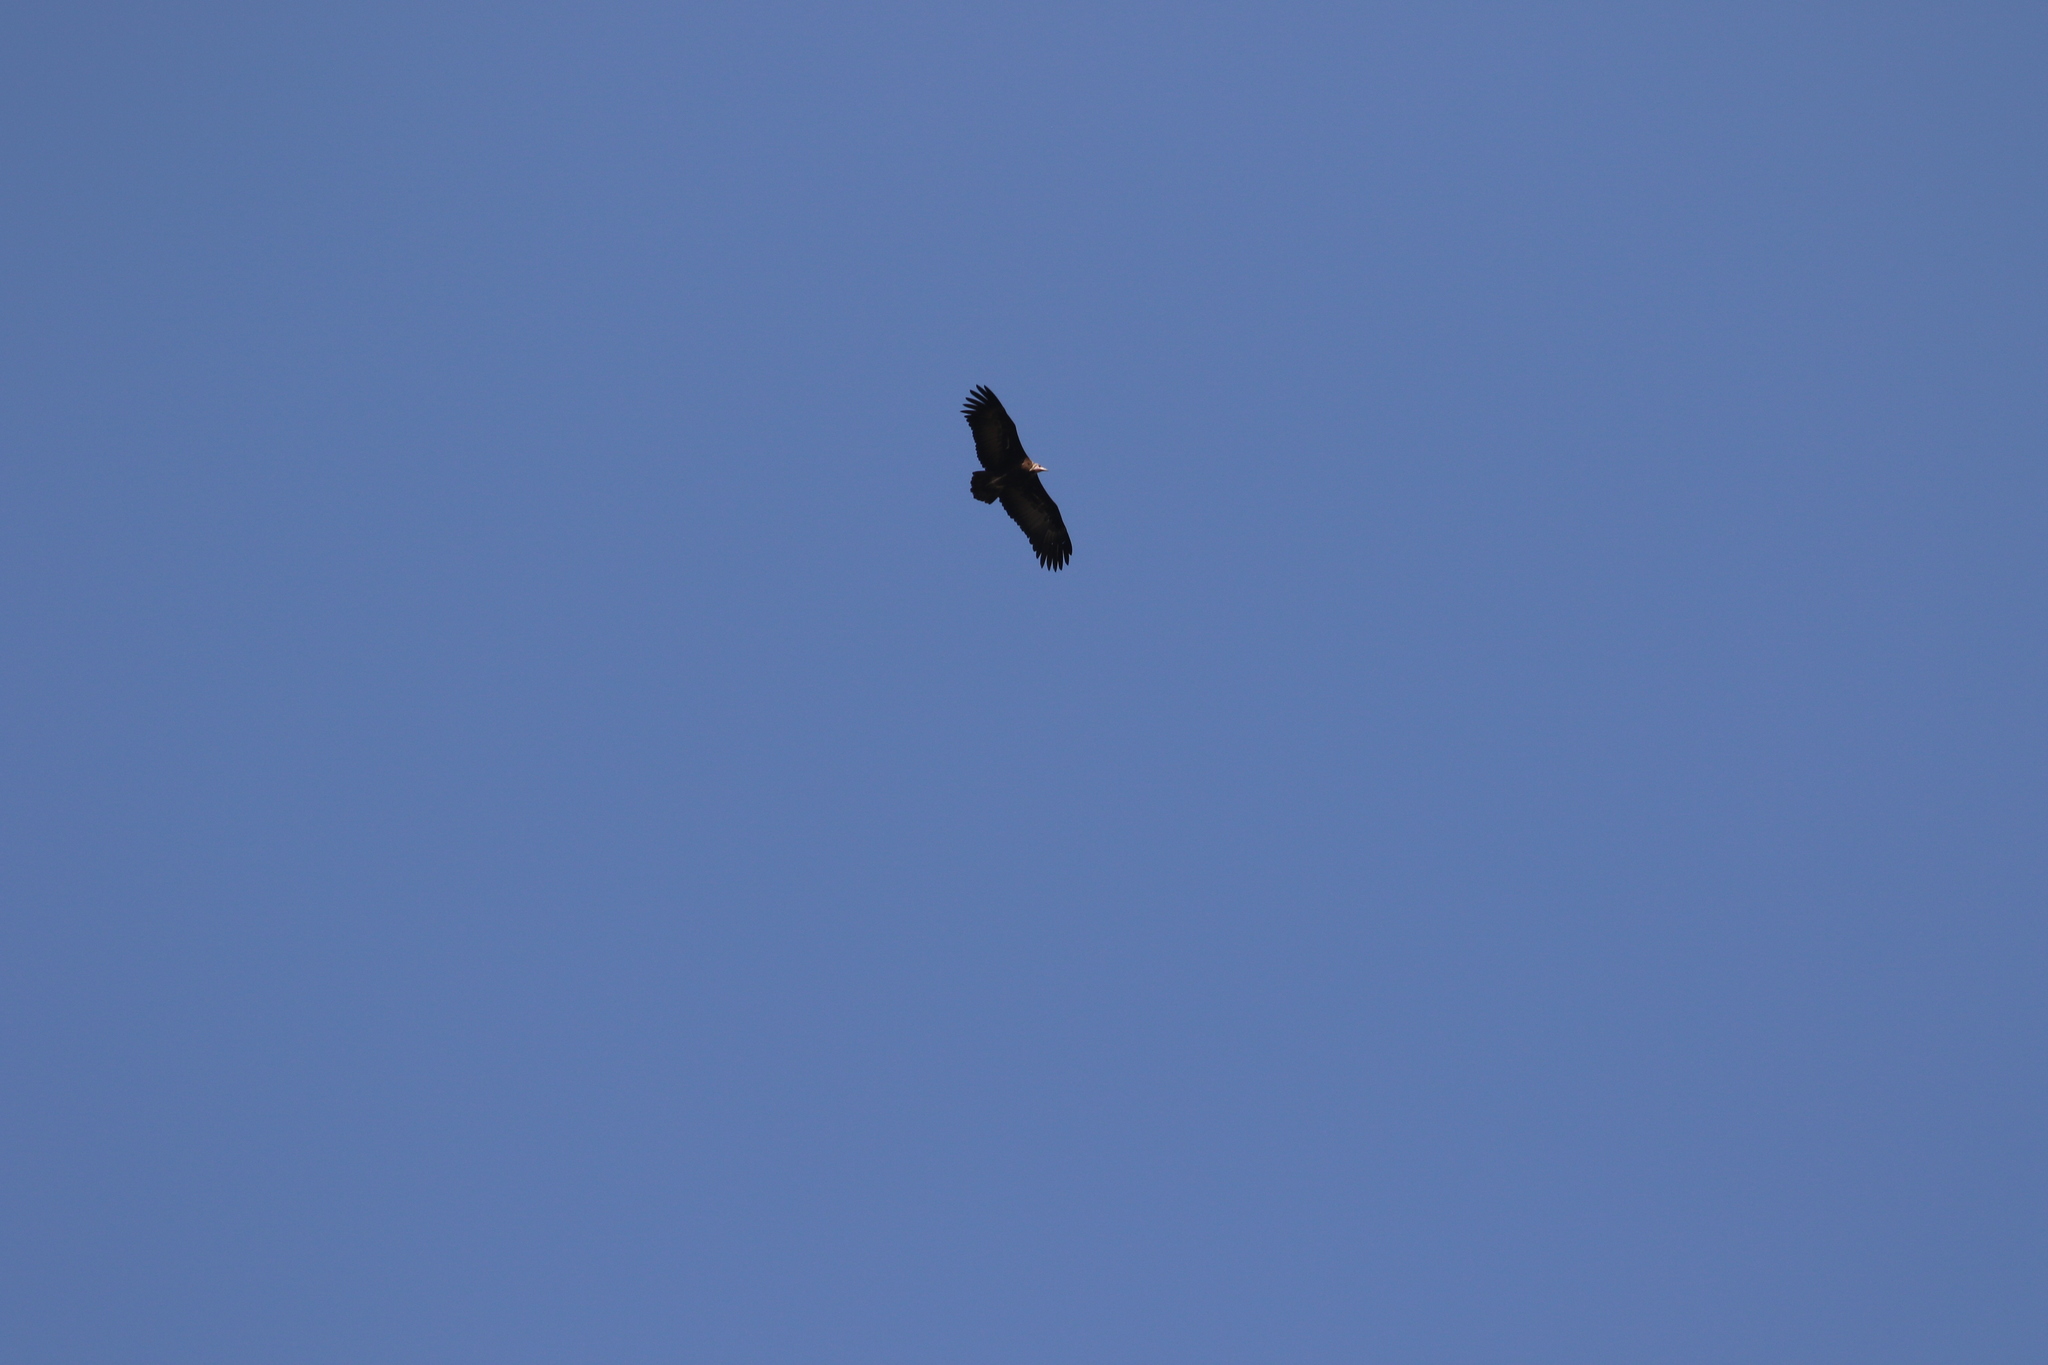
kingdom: Animalia
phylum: Chordata
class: Aves
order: Accipitriformes
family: Accipitridae
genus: Necrosyrtes
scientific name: Necrosyrtes monachus
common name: Hooded vulture
